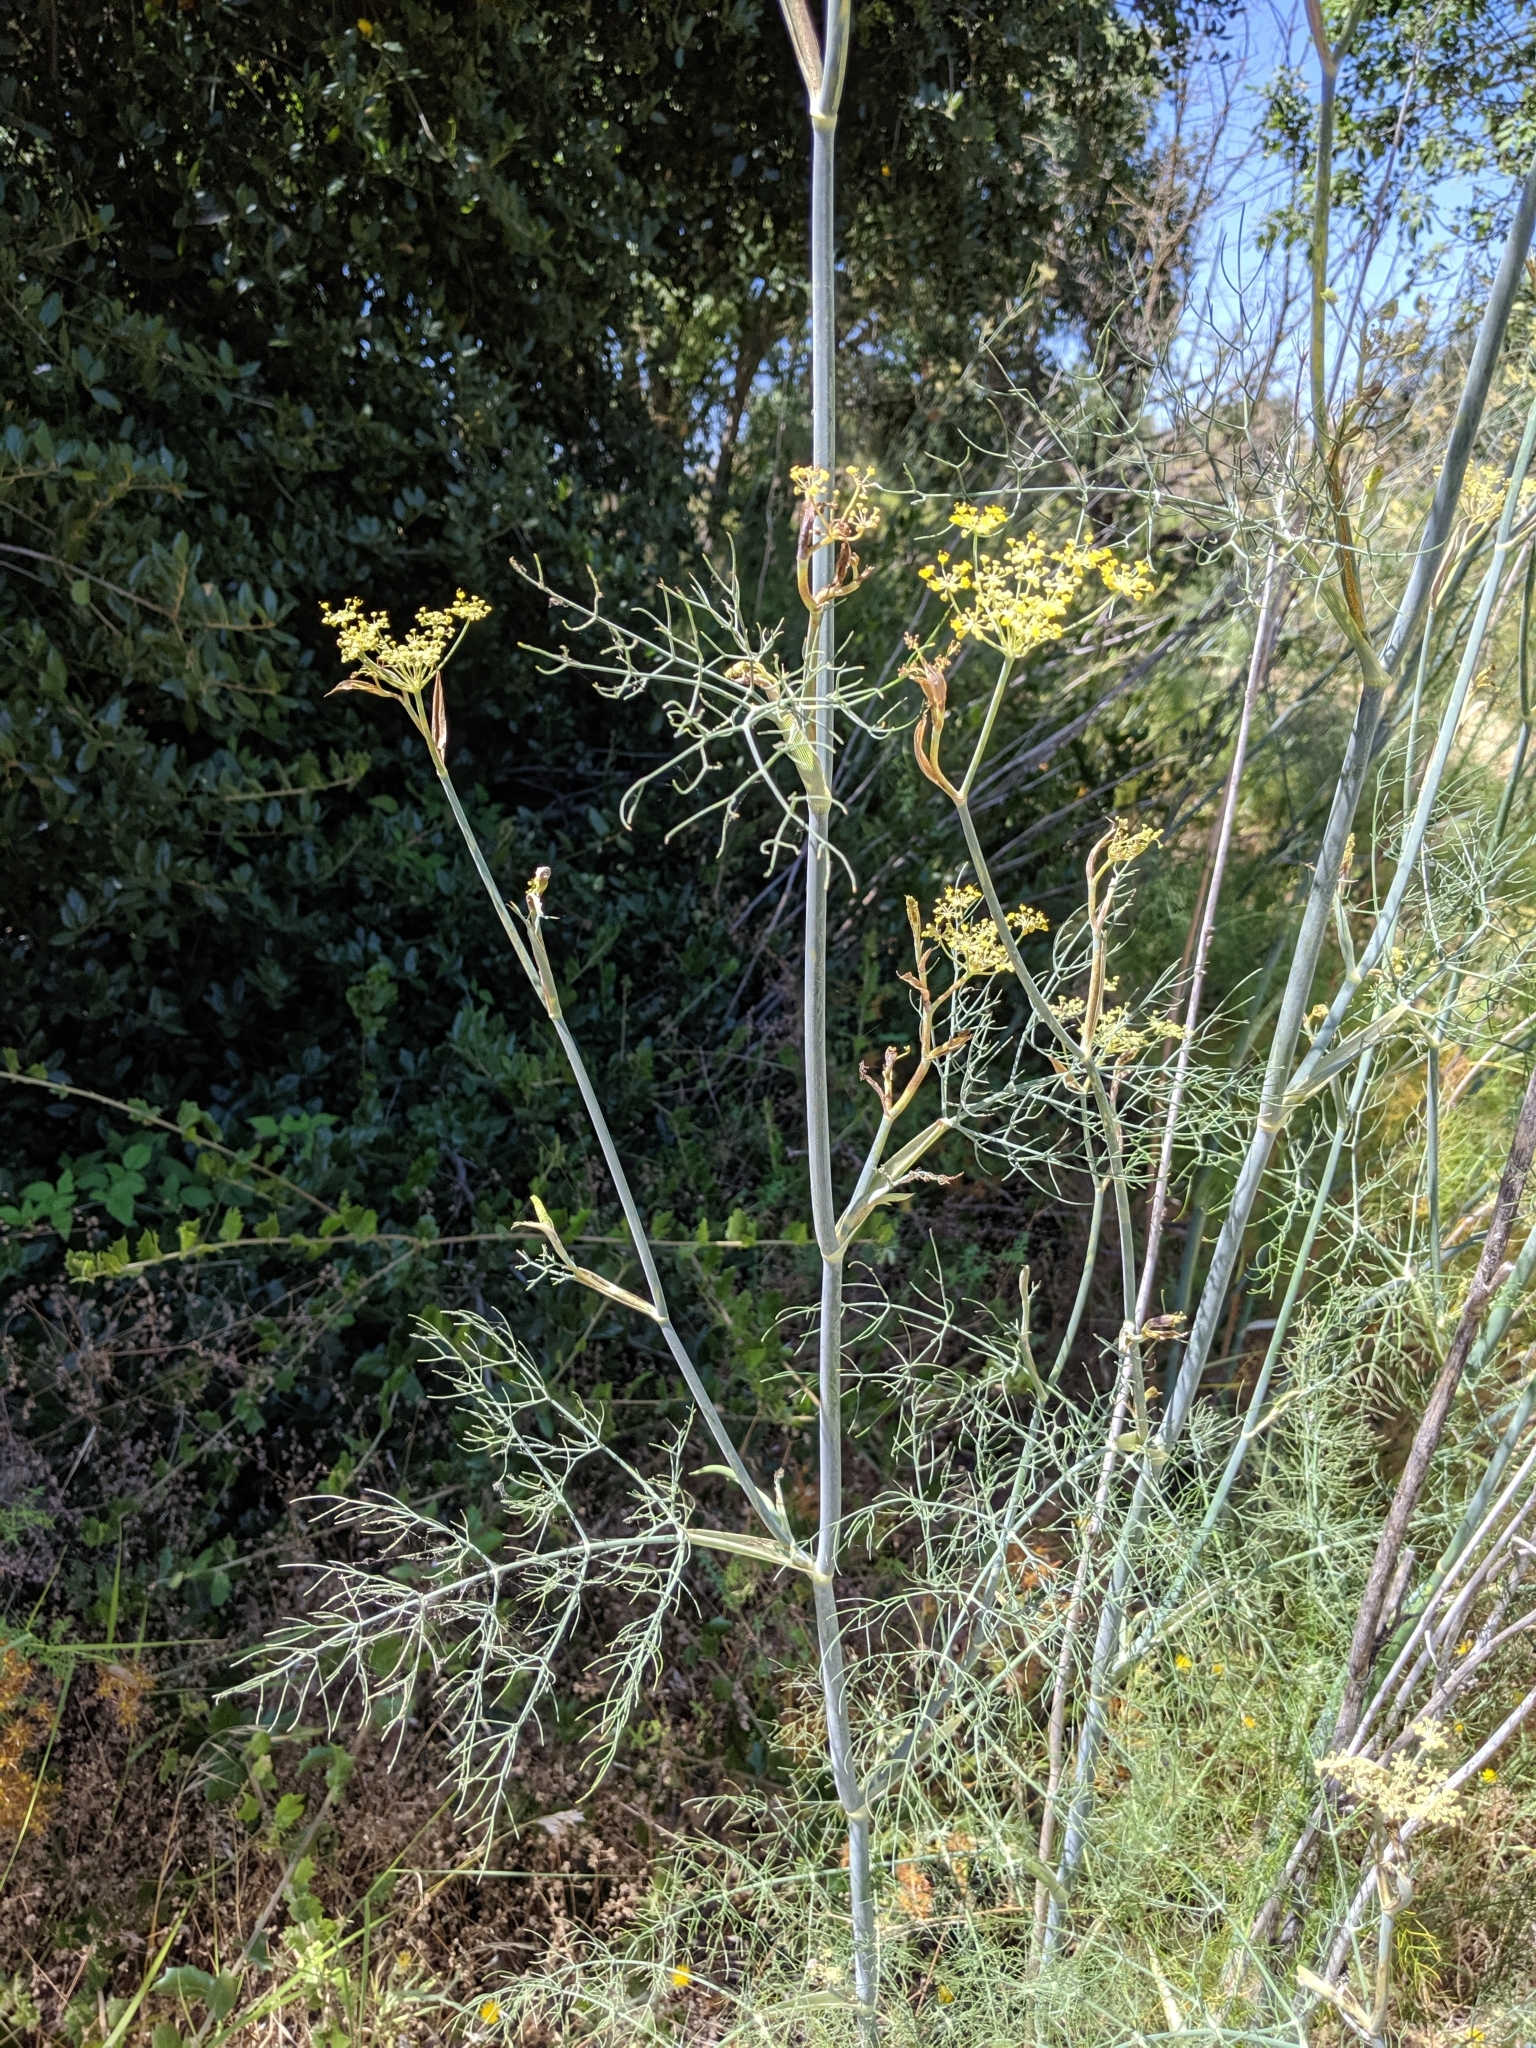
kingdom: Plantae
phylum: Tracheophyta
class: Magnoliopsida
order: Apiales
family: Apiaceae
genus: Foeniculum
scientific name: Foeniculum vulgare
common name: Fennel
